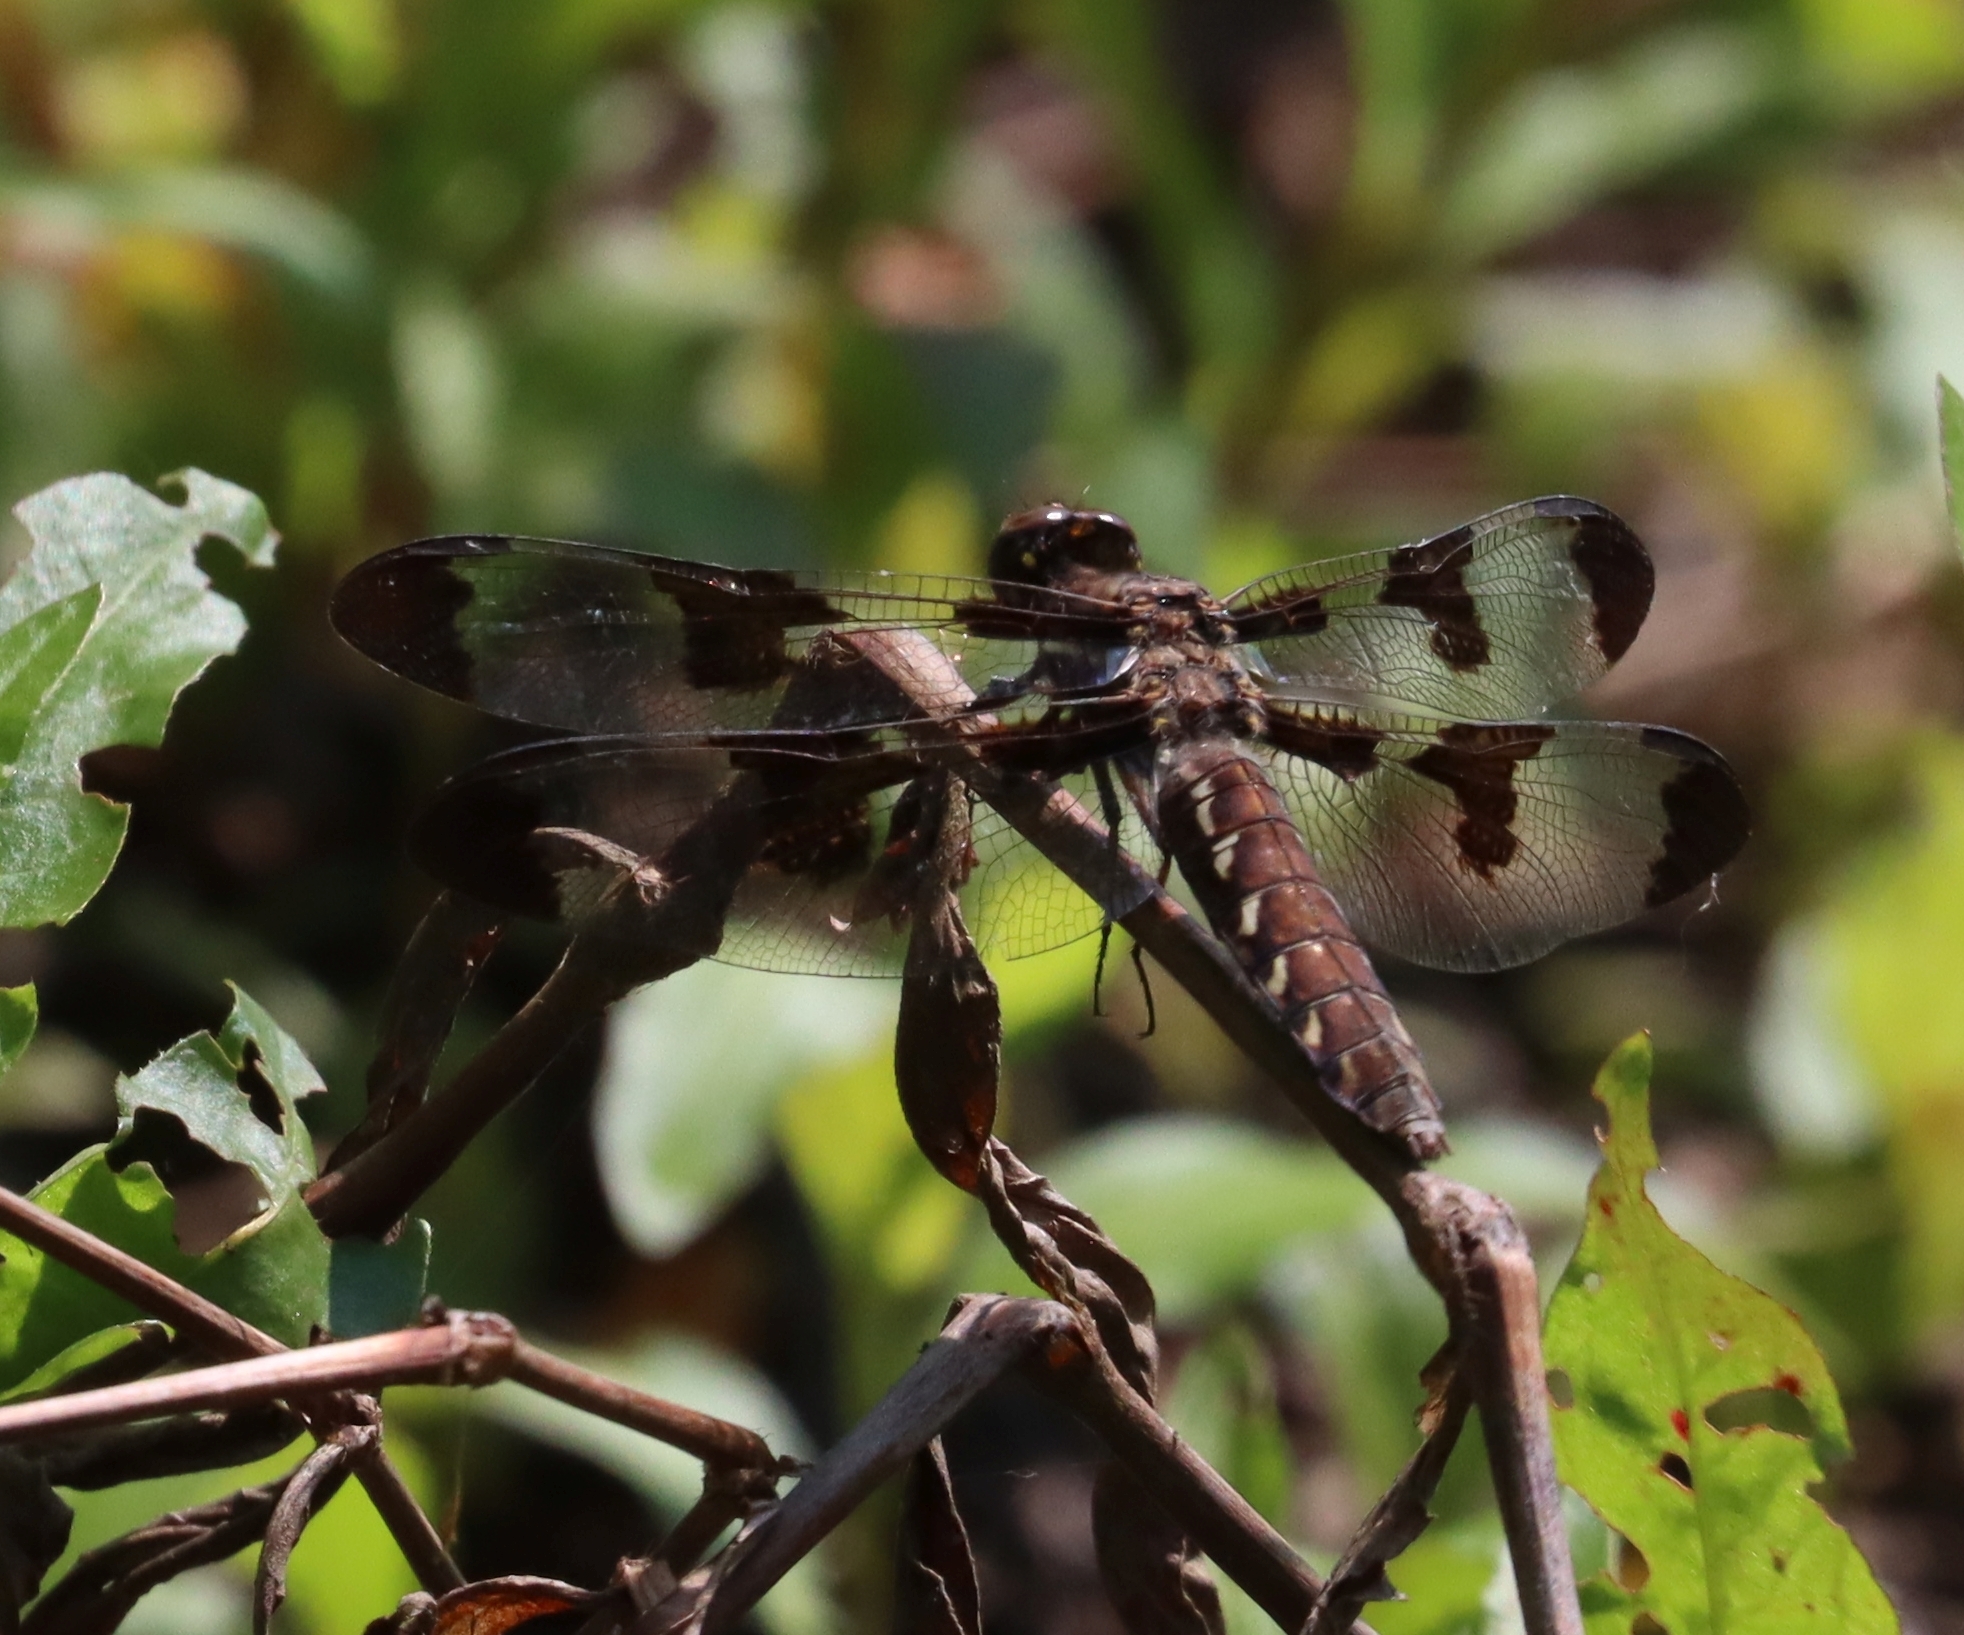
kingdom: Animalia
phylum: Arthropoda
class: Insecta
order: Odonata
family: Libellulidae
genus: Plathemis
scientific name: Plathemis lydia
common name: Common whitetail
